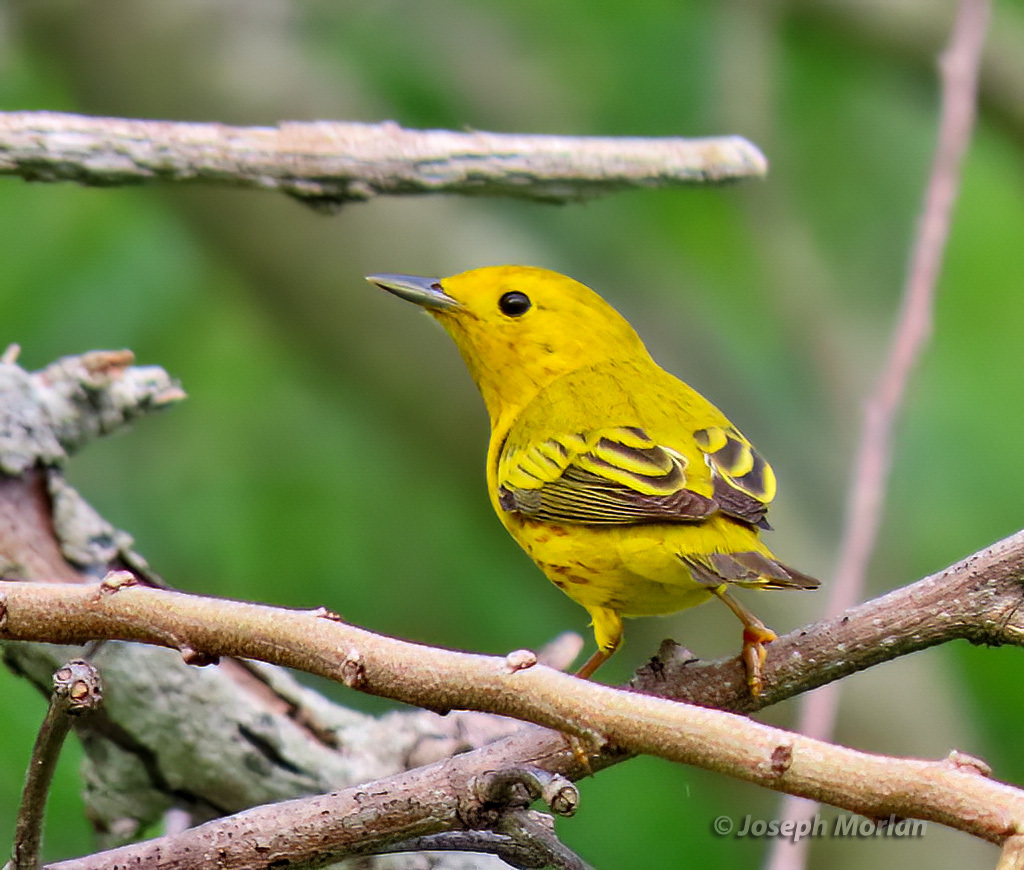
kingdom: Animalia
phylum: Chordata
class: Aves
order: Passeriformes
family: Parulidae
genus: Setophaga
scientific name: Setophaga petechia
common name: Yellow warbler
